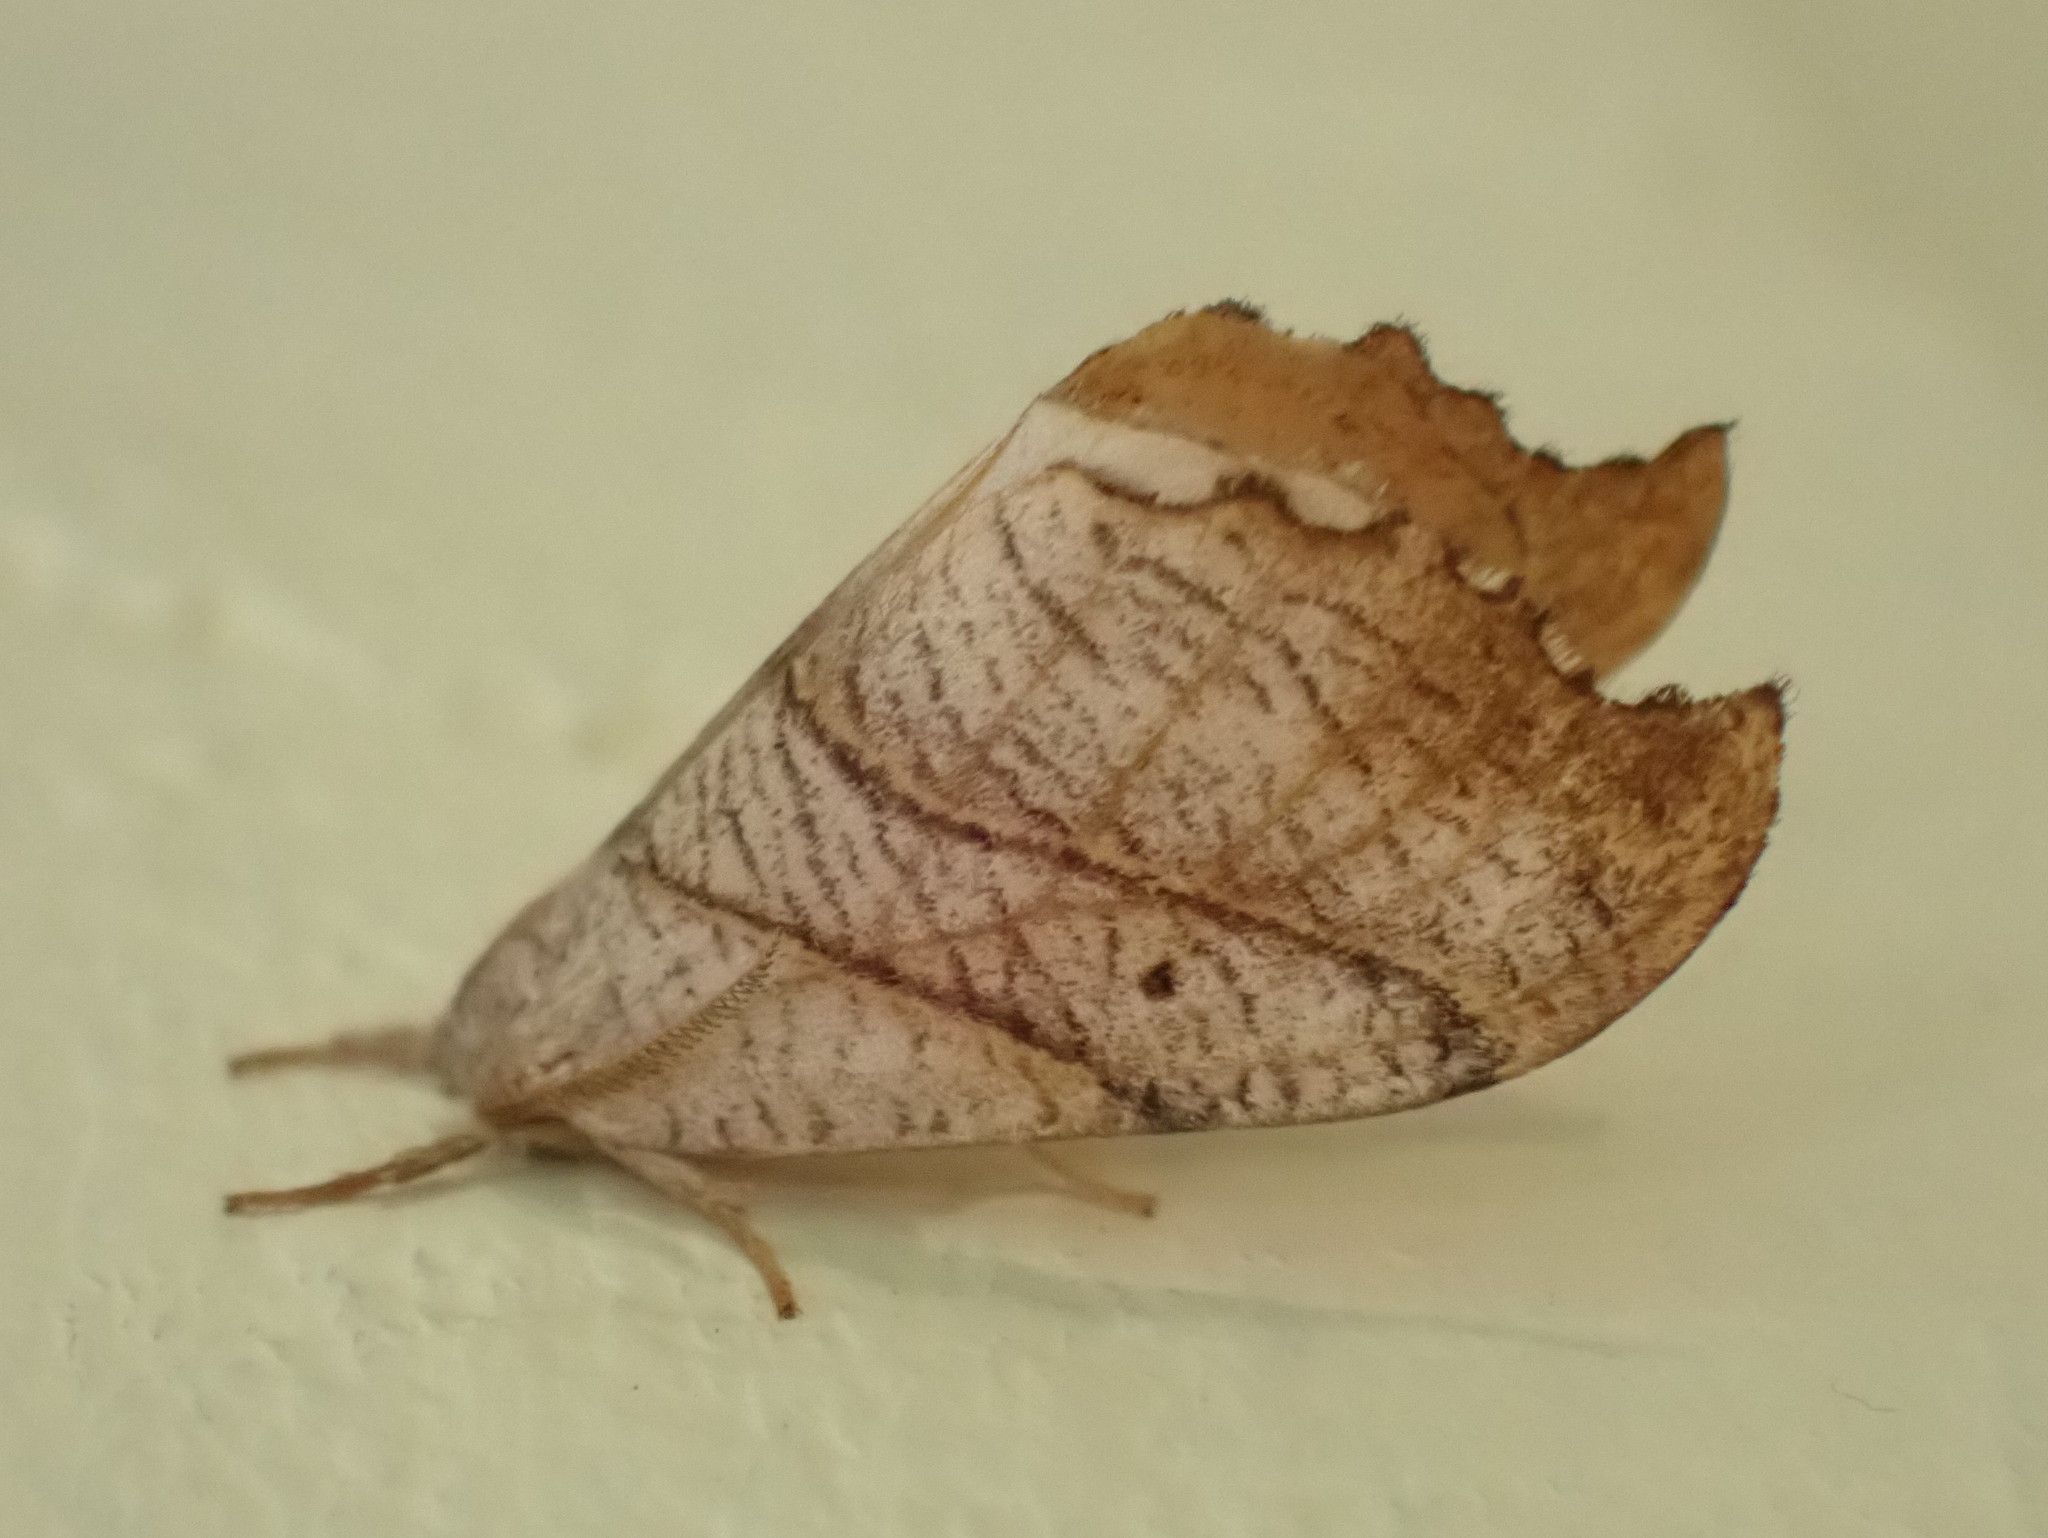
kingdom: Animalia
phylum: Arthropoda
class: Insecta
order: Lepidoptera
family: Drepanidae
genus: Falcaria
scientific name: Falcaria bilineata
